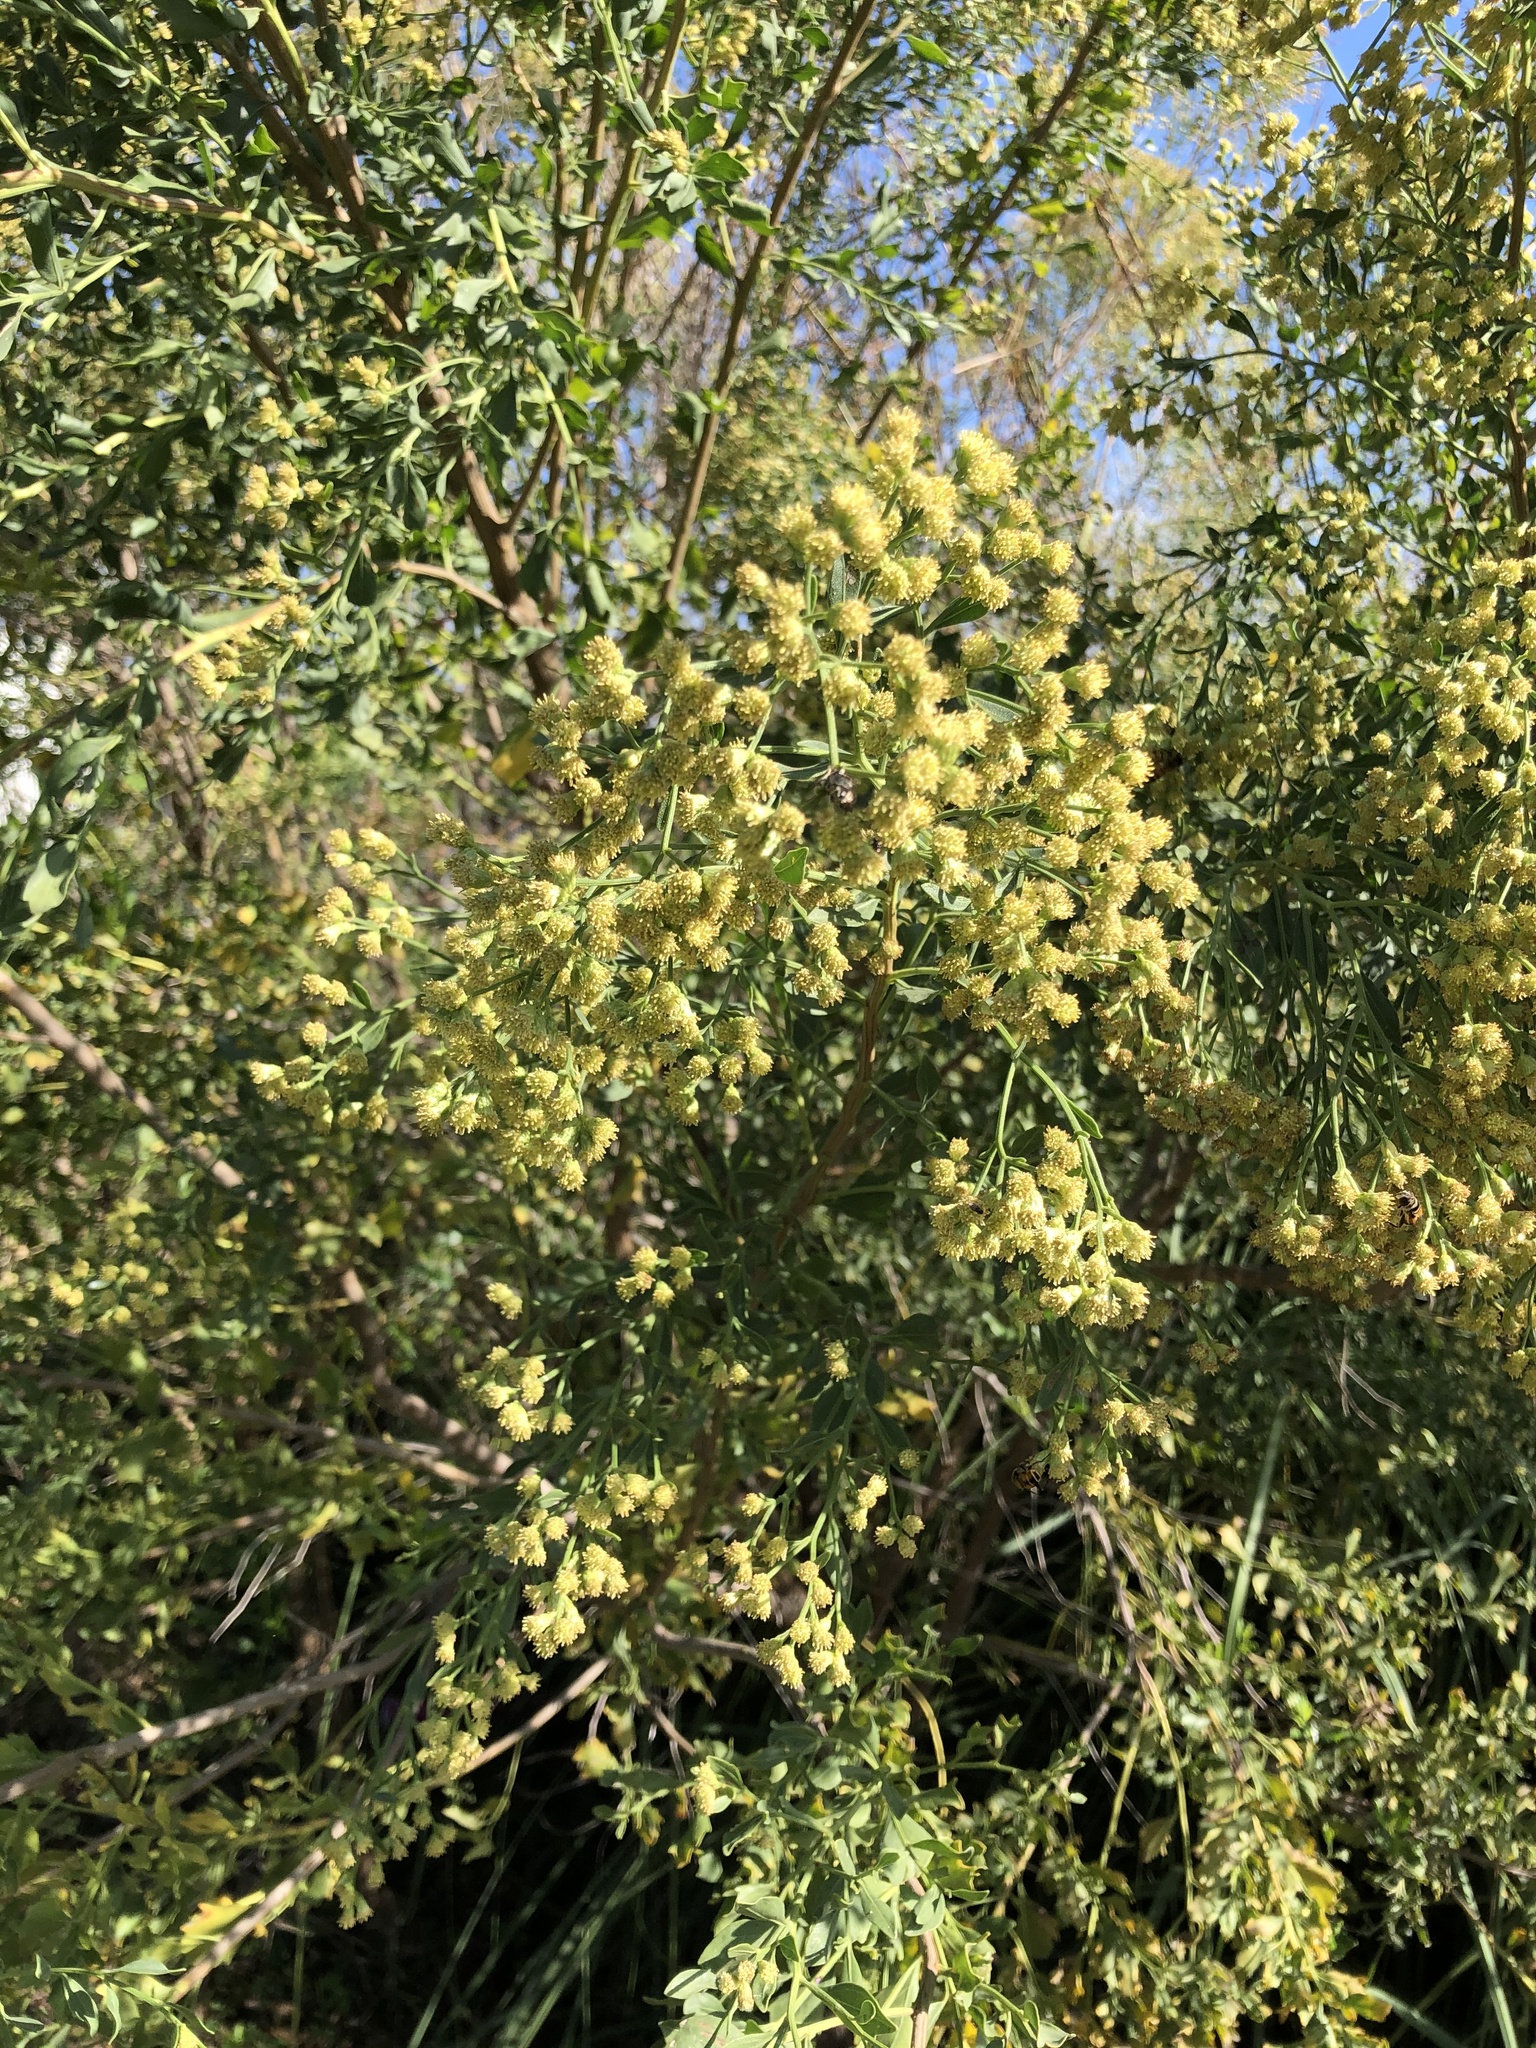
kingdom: Plantae
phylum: Tracheophyta
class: Magnoliopsida
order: Asterales
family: Asteraceae
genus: Baccharis
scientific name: Baccharis halimifolia
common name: Eastern baccharis
